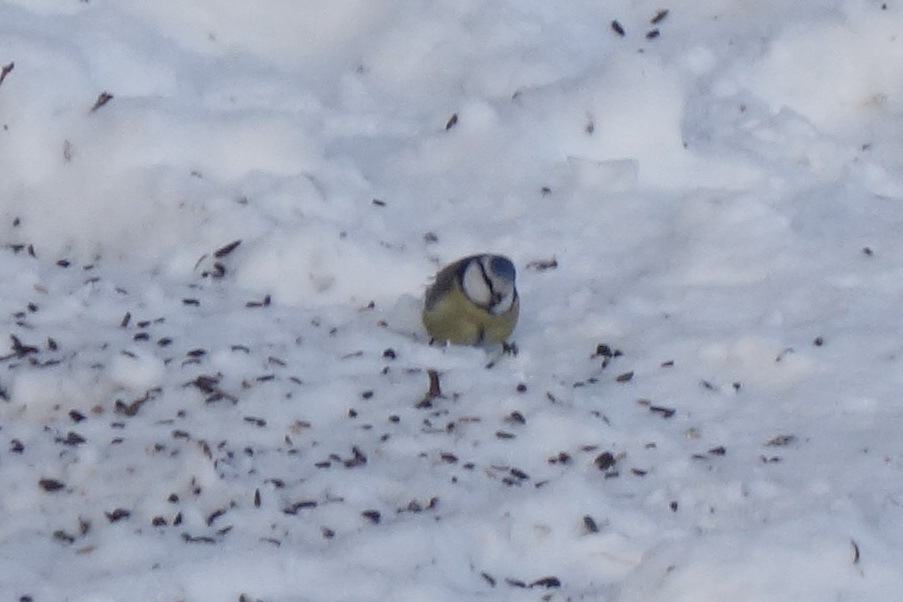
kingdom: Animalia
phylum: Chordata
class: Aves
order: Passeriformes
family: Paridae
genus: Cyanistes
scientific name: Cyanistes caeruleus
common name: Eurasian blue tit
